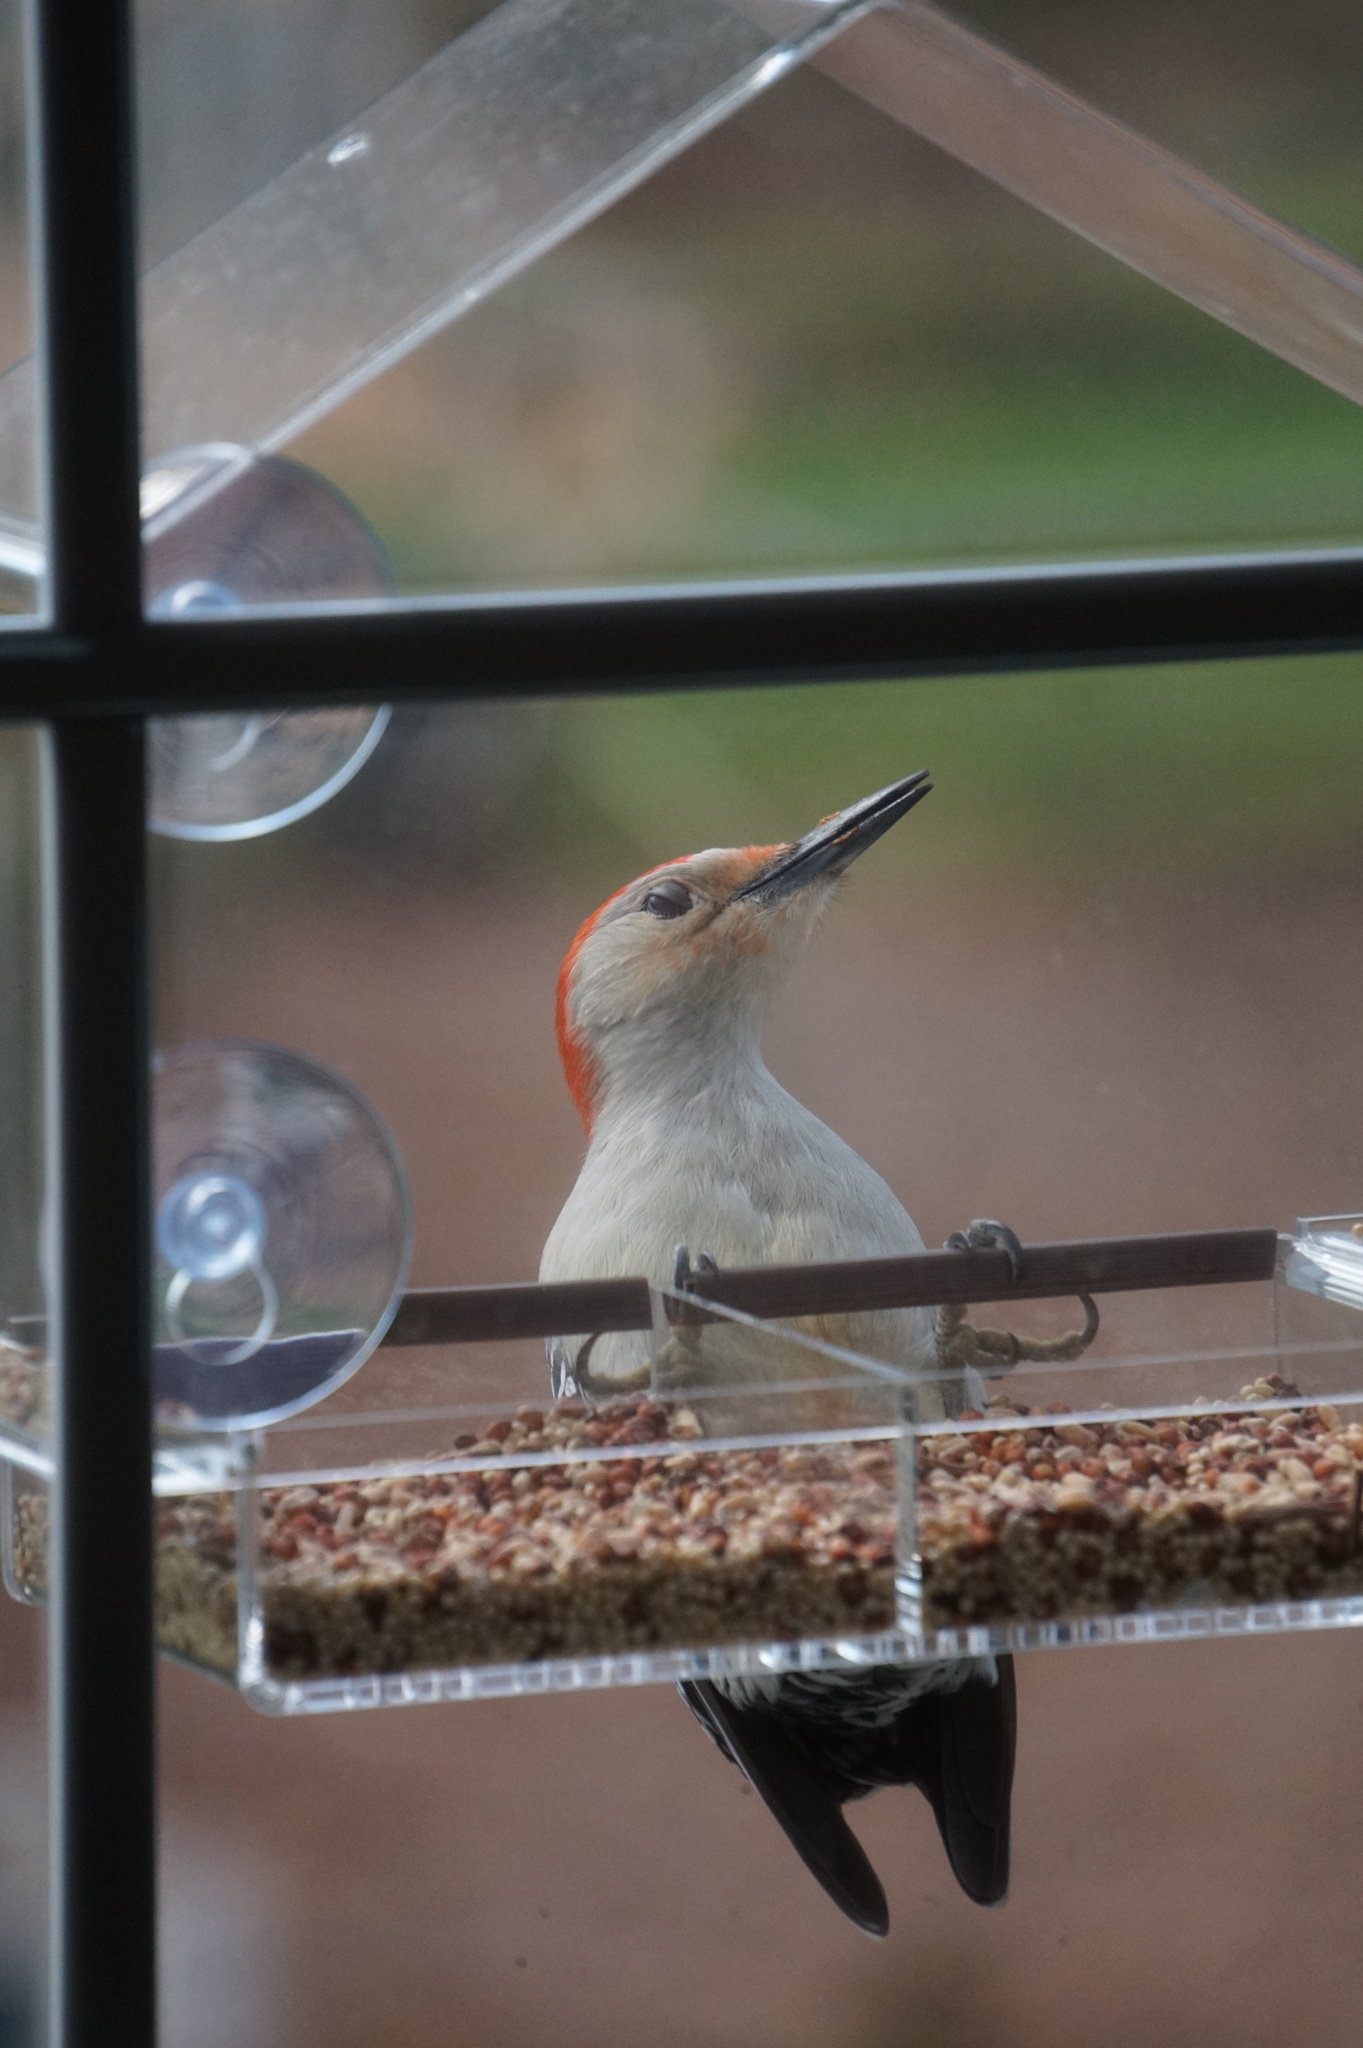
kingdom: Animalia
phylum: Chordata
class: Aves
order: Piciformes
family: Picidae
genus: Melanerpes
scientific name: Melanerpes carolinus
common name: Red-bellied woodpecker
